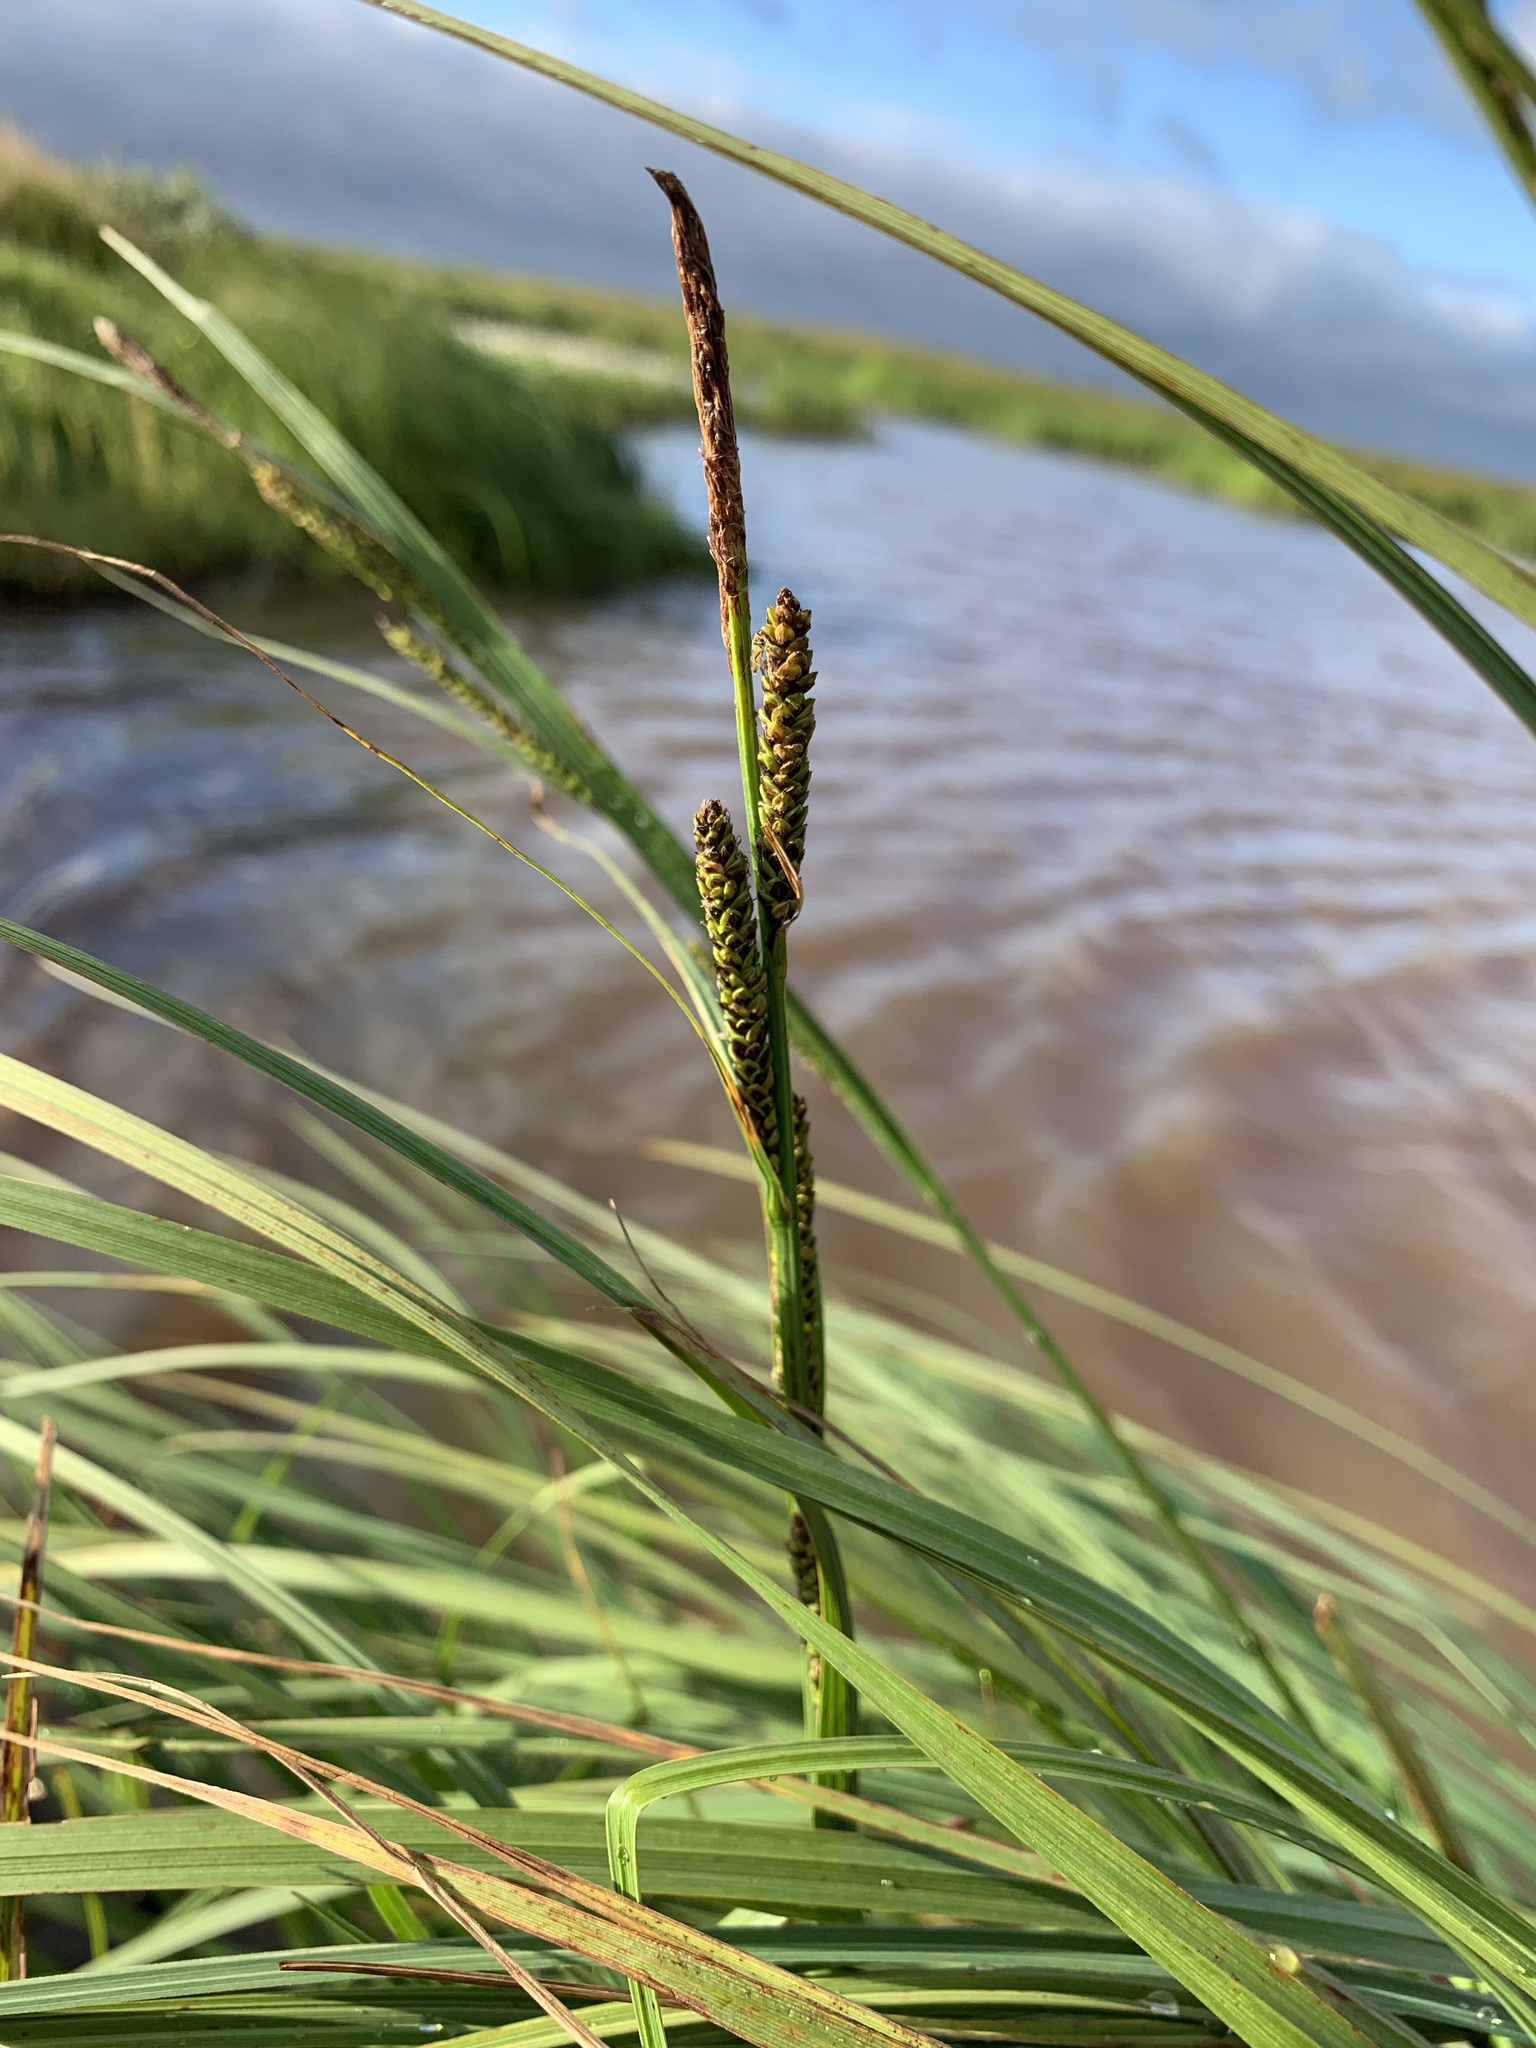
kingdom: Plantae
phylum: Tracheophyta
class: Liliopsida
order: Poales
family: Cyperaceae
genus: Carex
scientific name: Carex aquatilis
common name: Water sedge
